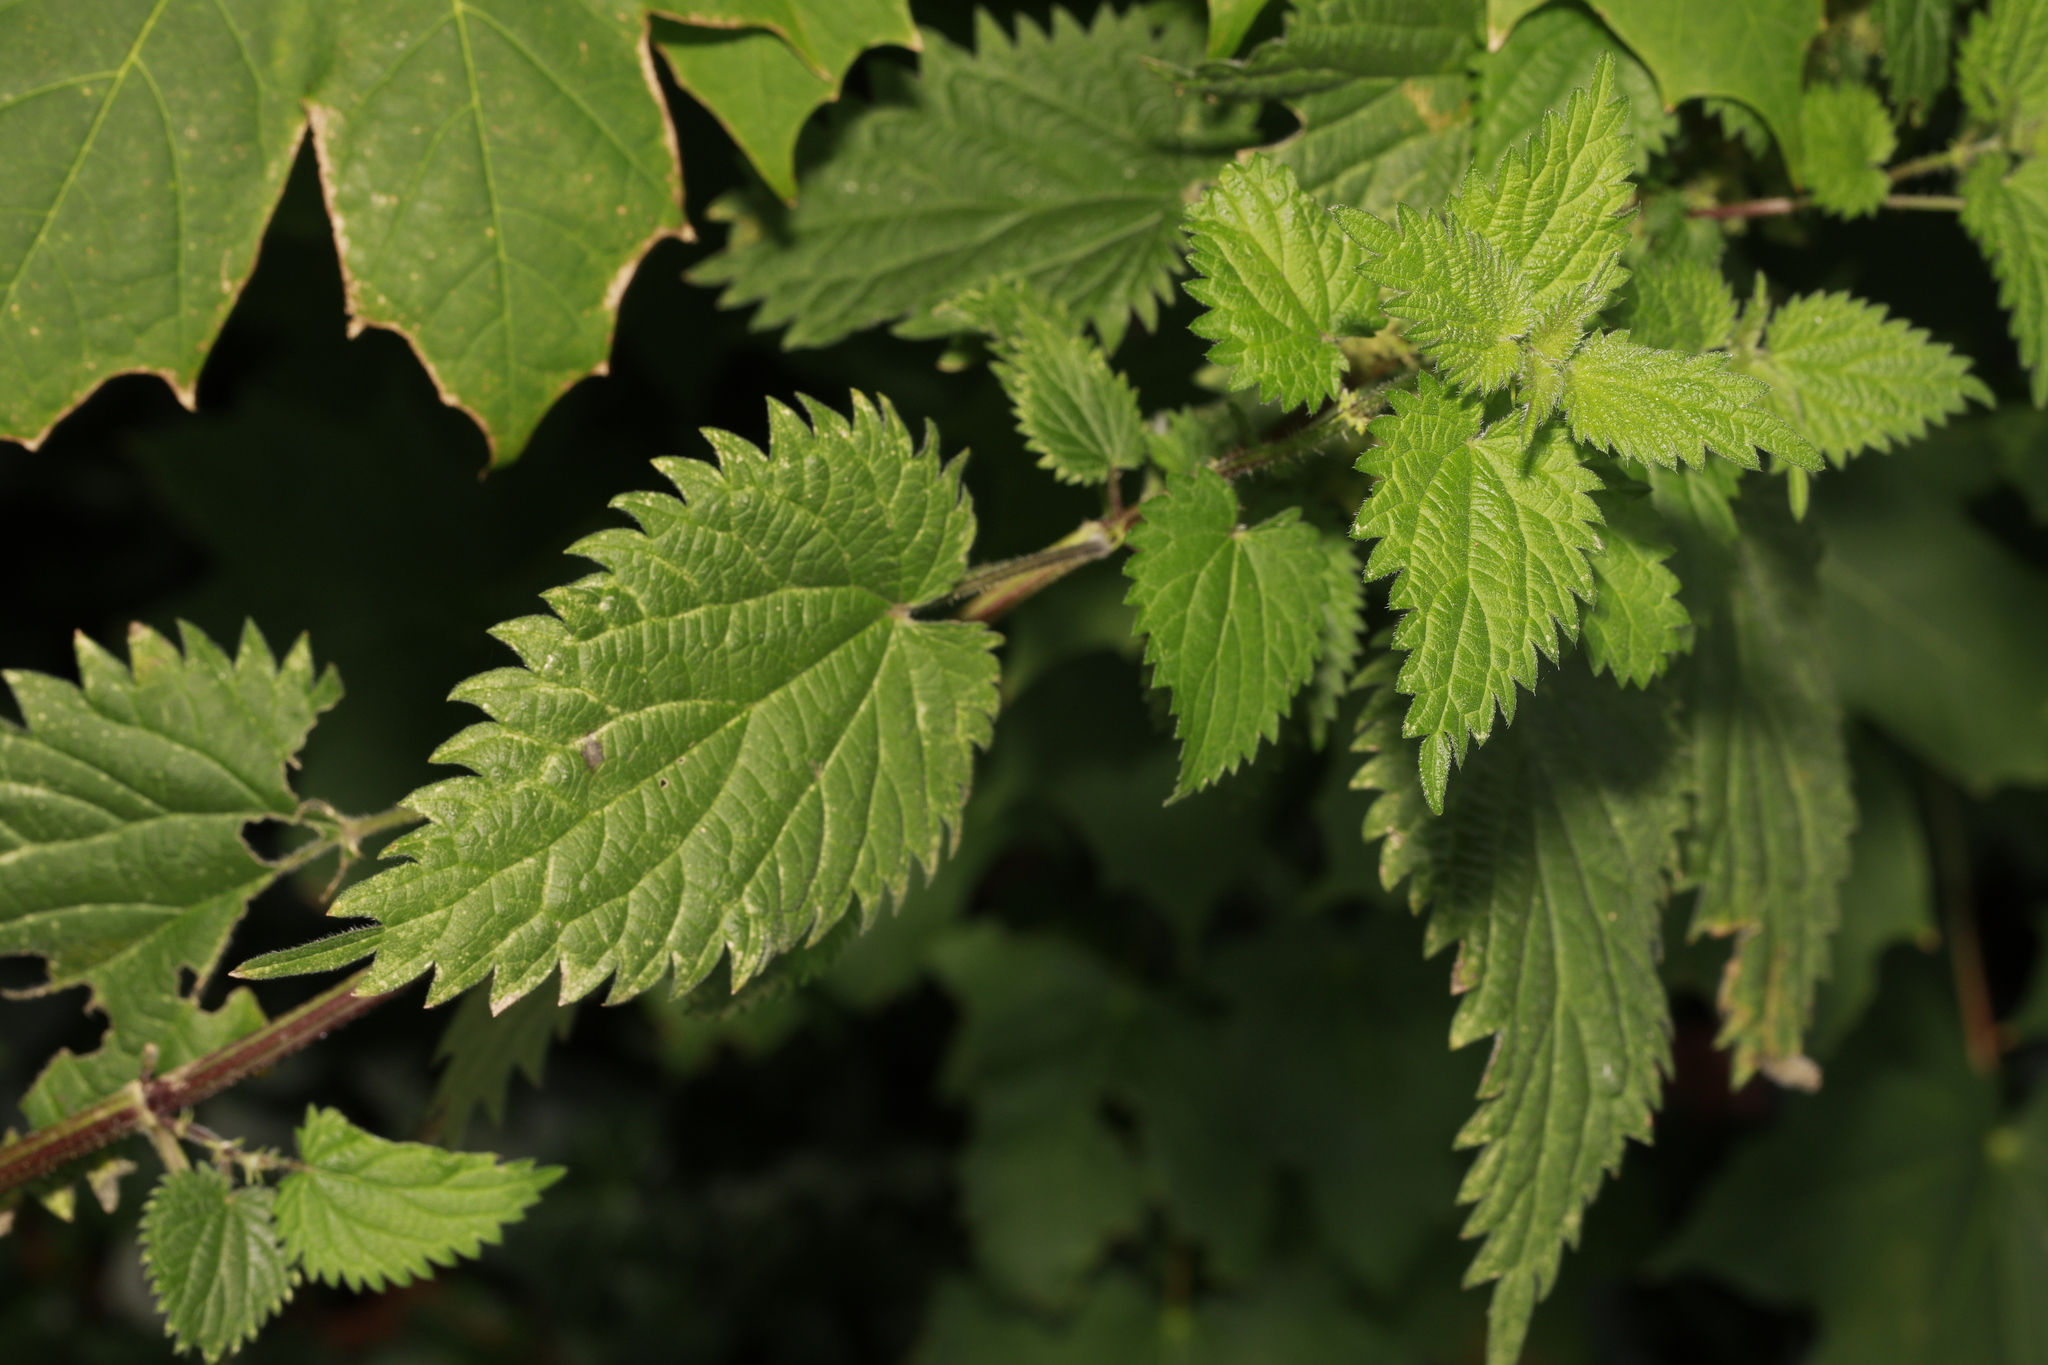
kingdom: Plantae
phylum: Tracheophyta
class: Magnoliopsida
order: Rosales
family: Urticaceae
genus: Urtica
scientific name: Urtica dioica
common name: Common nettle
